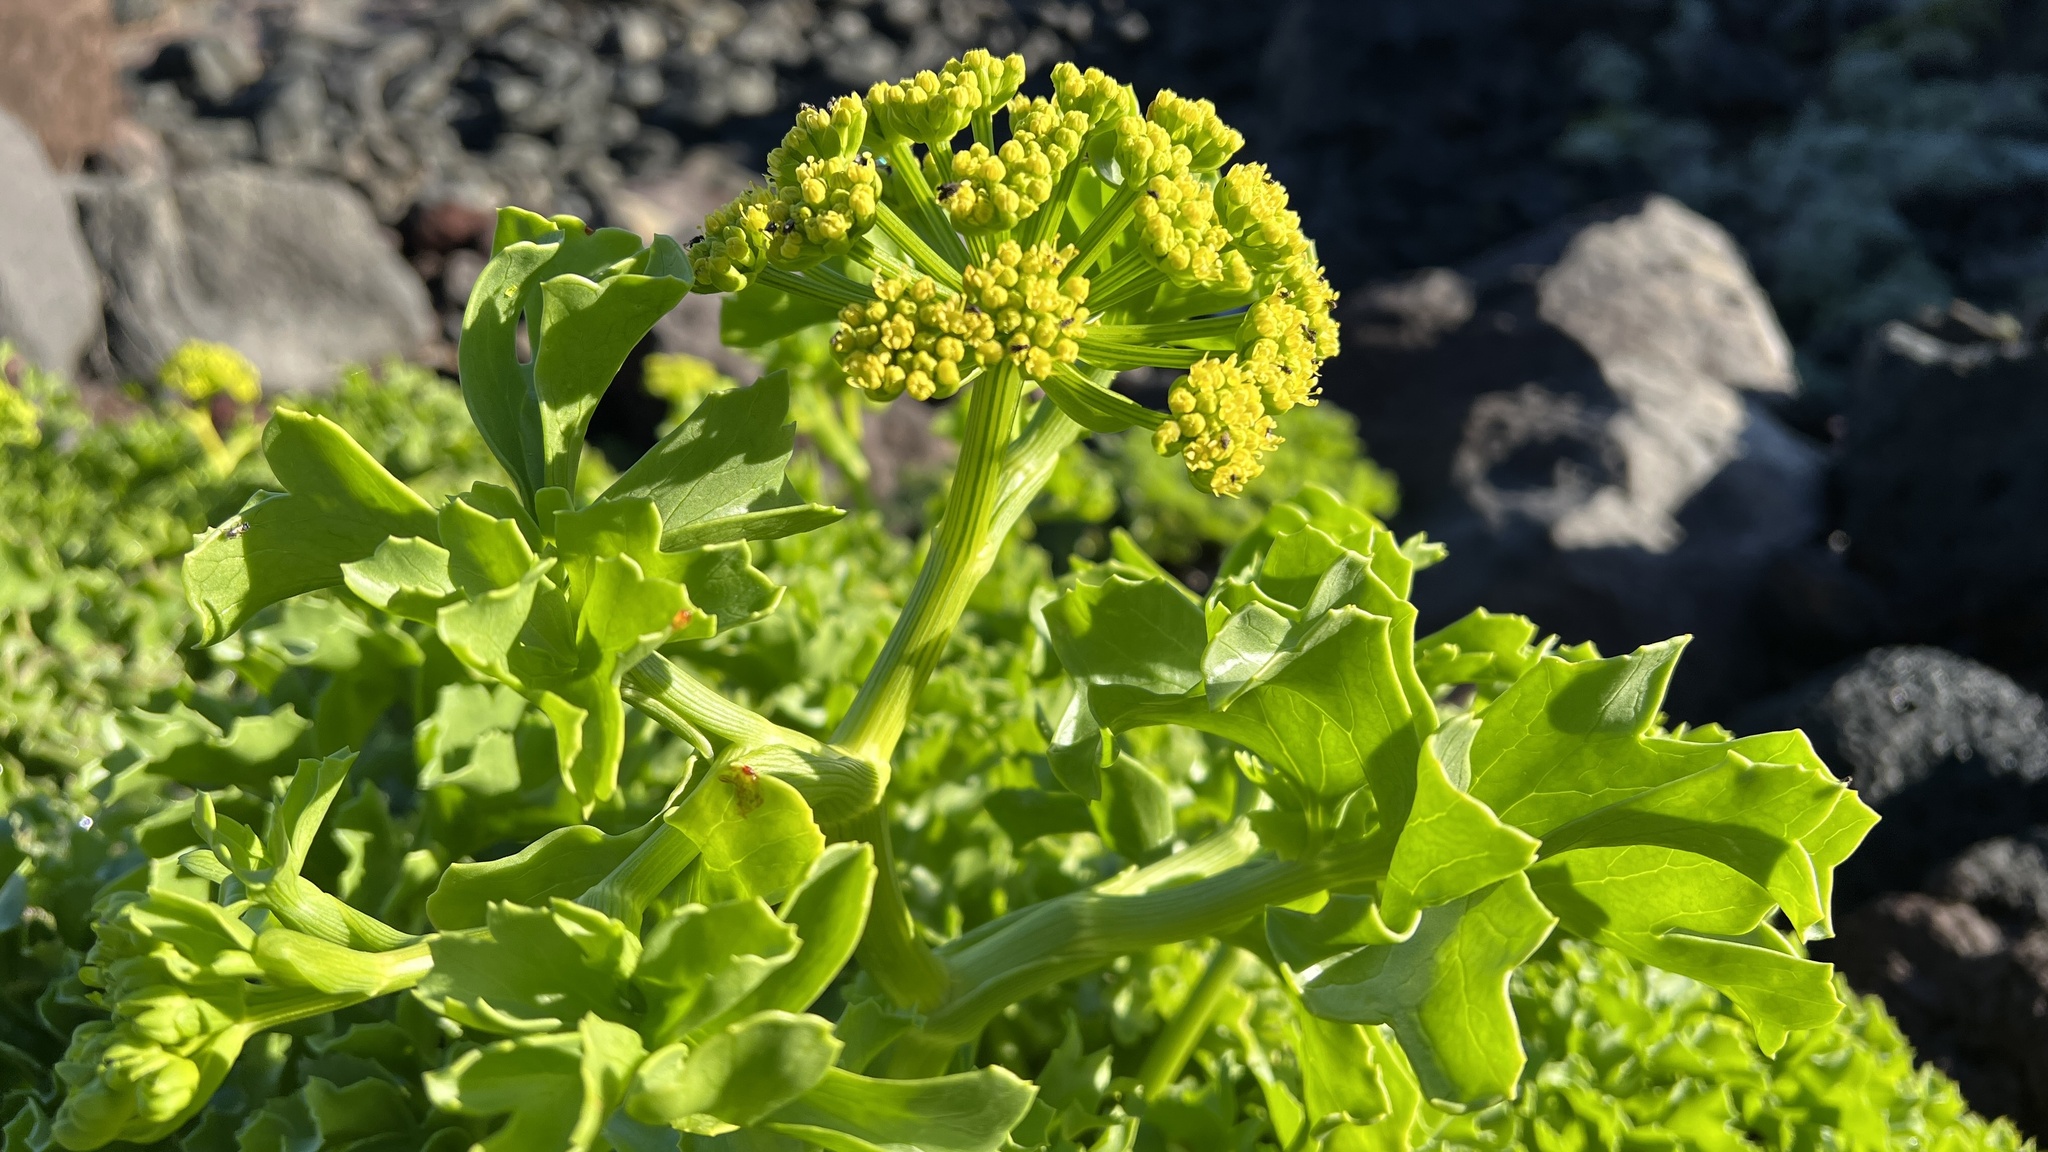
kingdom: Plantae
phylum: Tracheophyta
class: Magnoliopsida
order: Apiales
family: Apiaceae
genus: Astydamia
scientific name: Astydamia latifolia
